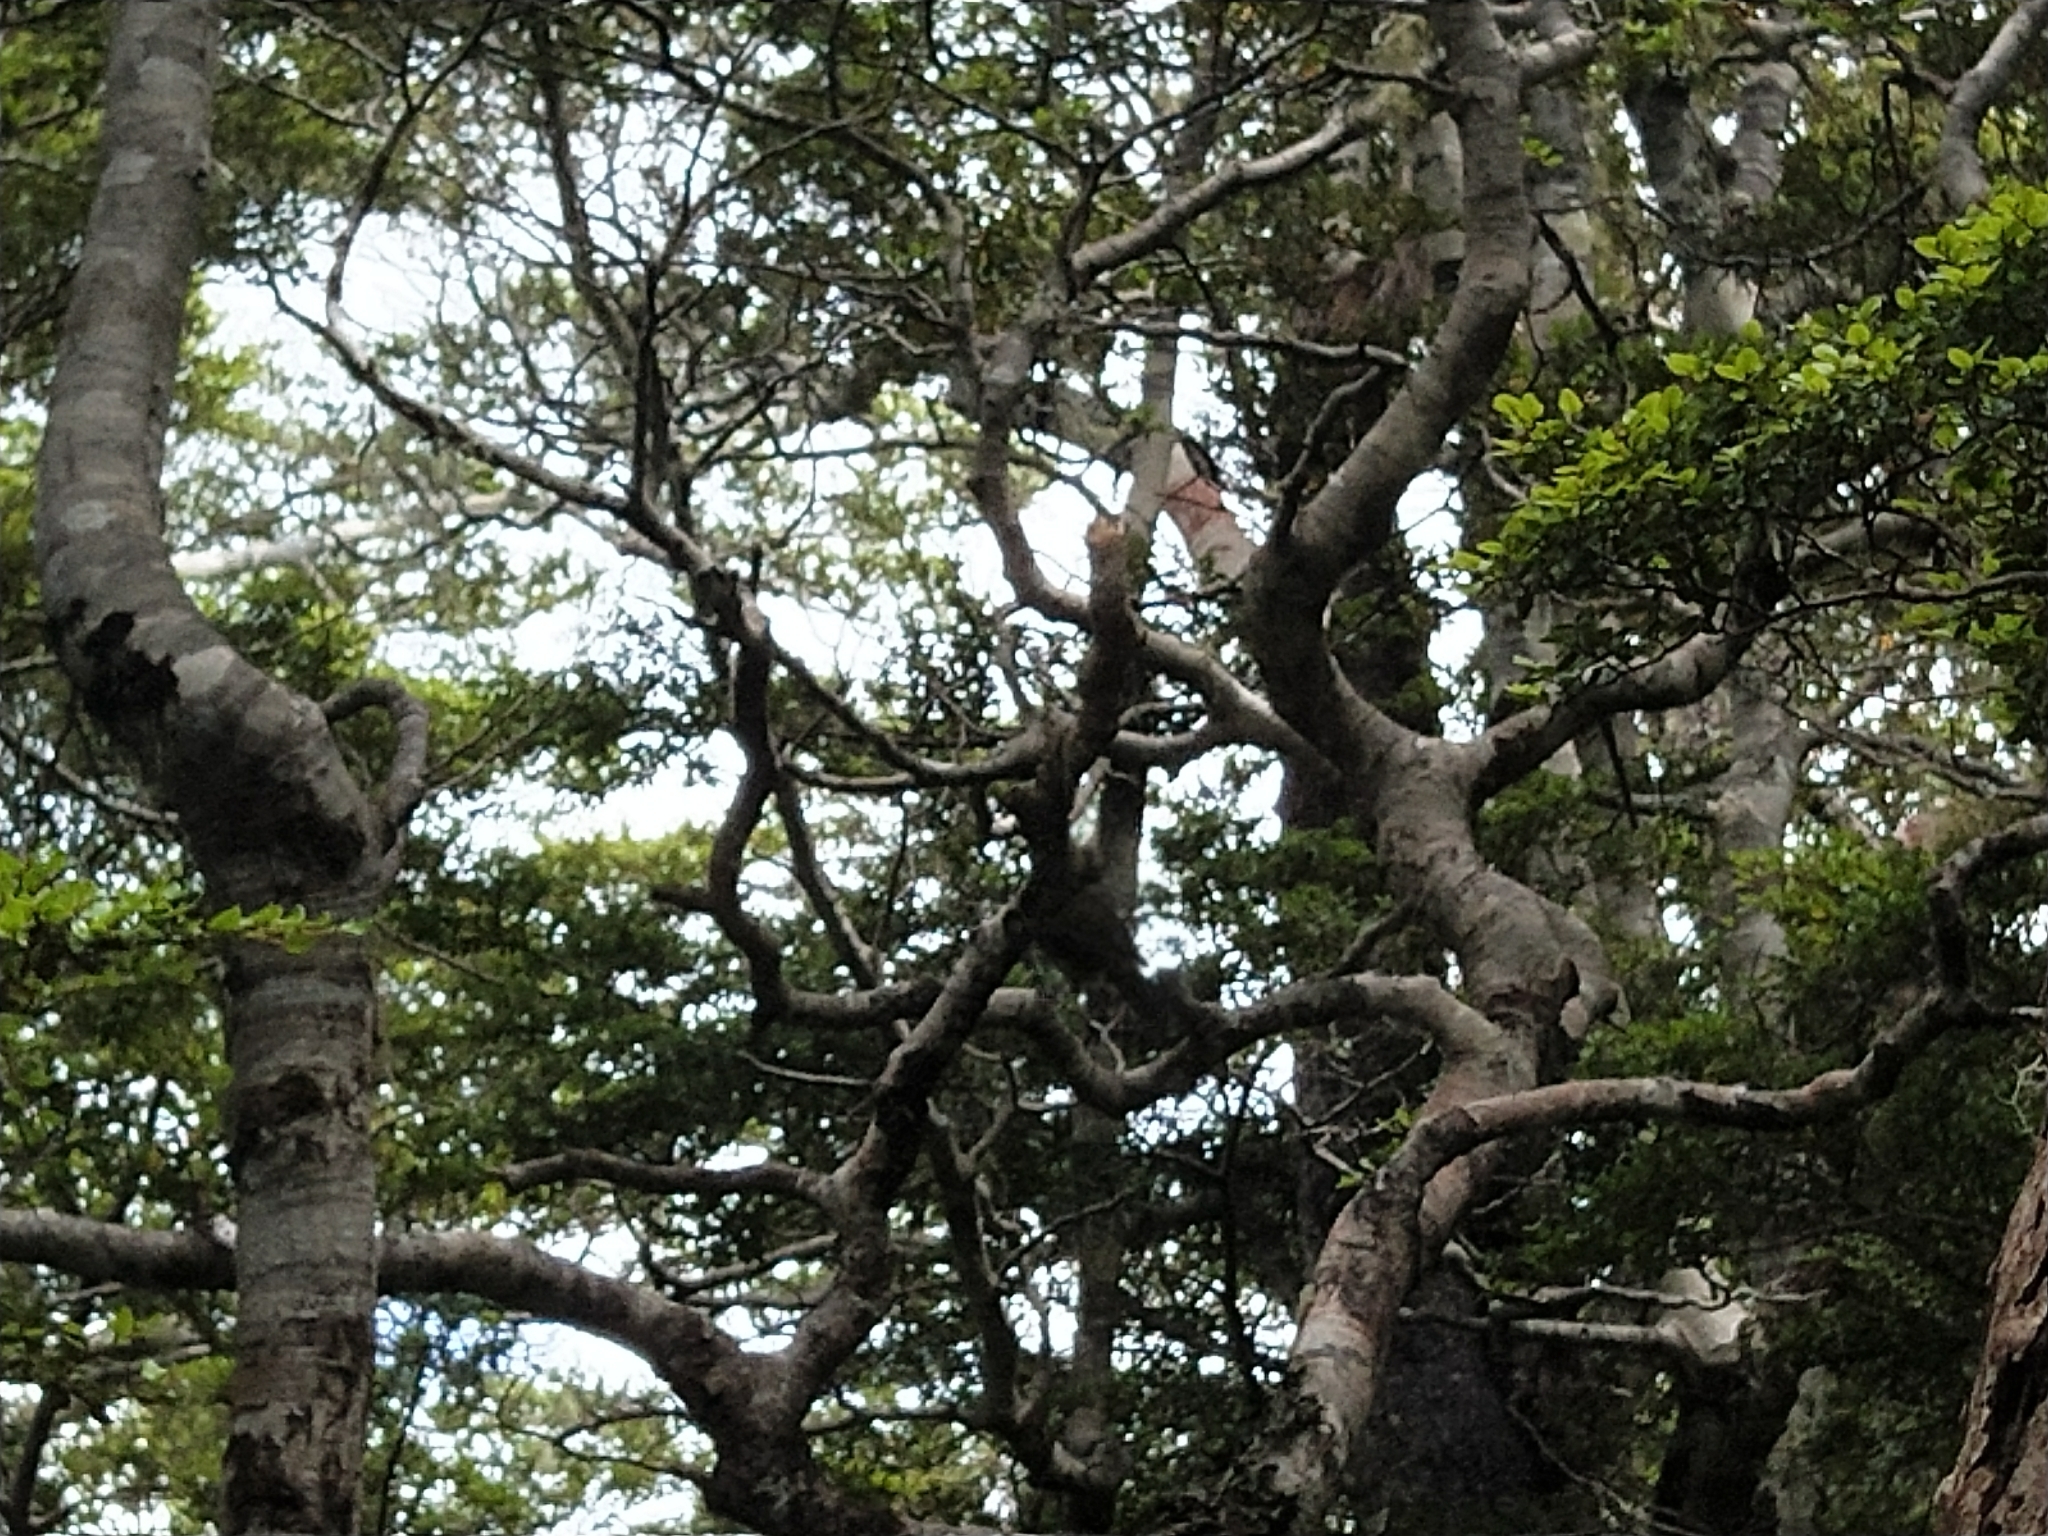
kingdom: Animalia
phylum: Chordata
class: Aves
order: Passeriformes
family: Meliphagidae
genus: Anthornis
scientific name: Anthornis melanura
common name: New zealand bellbird
